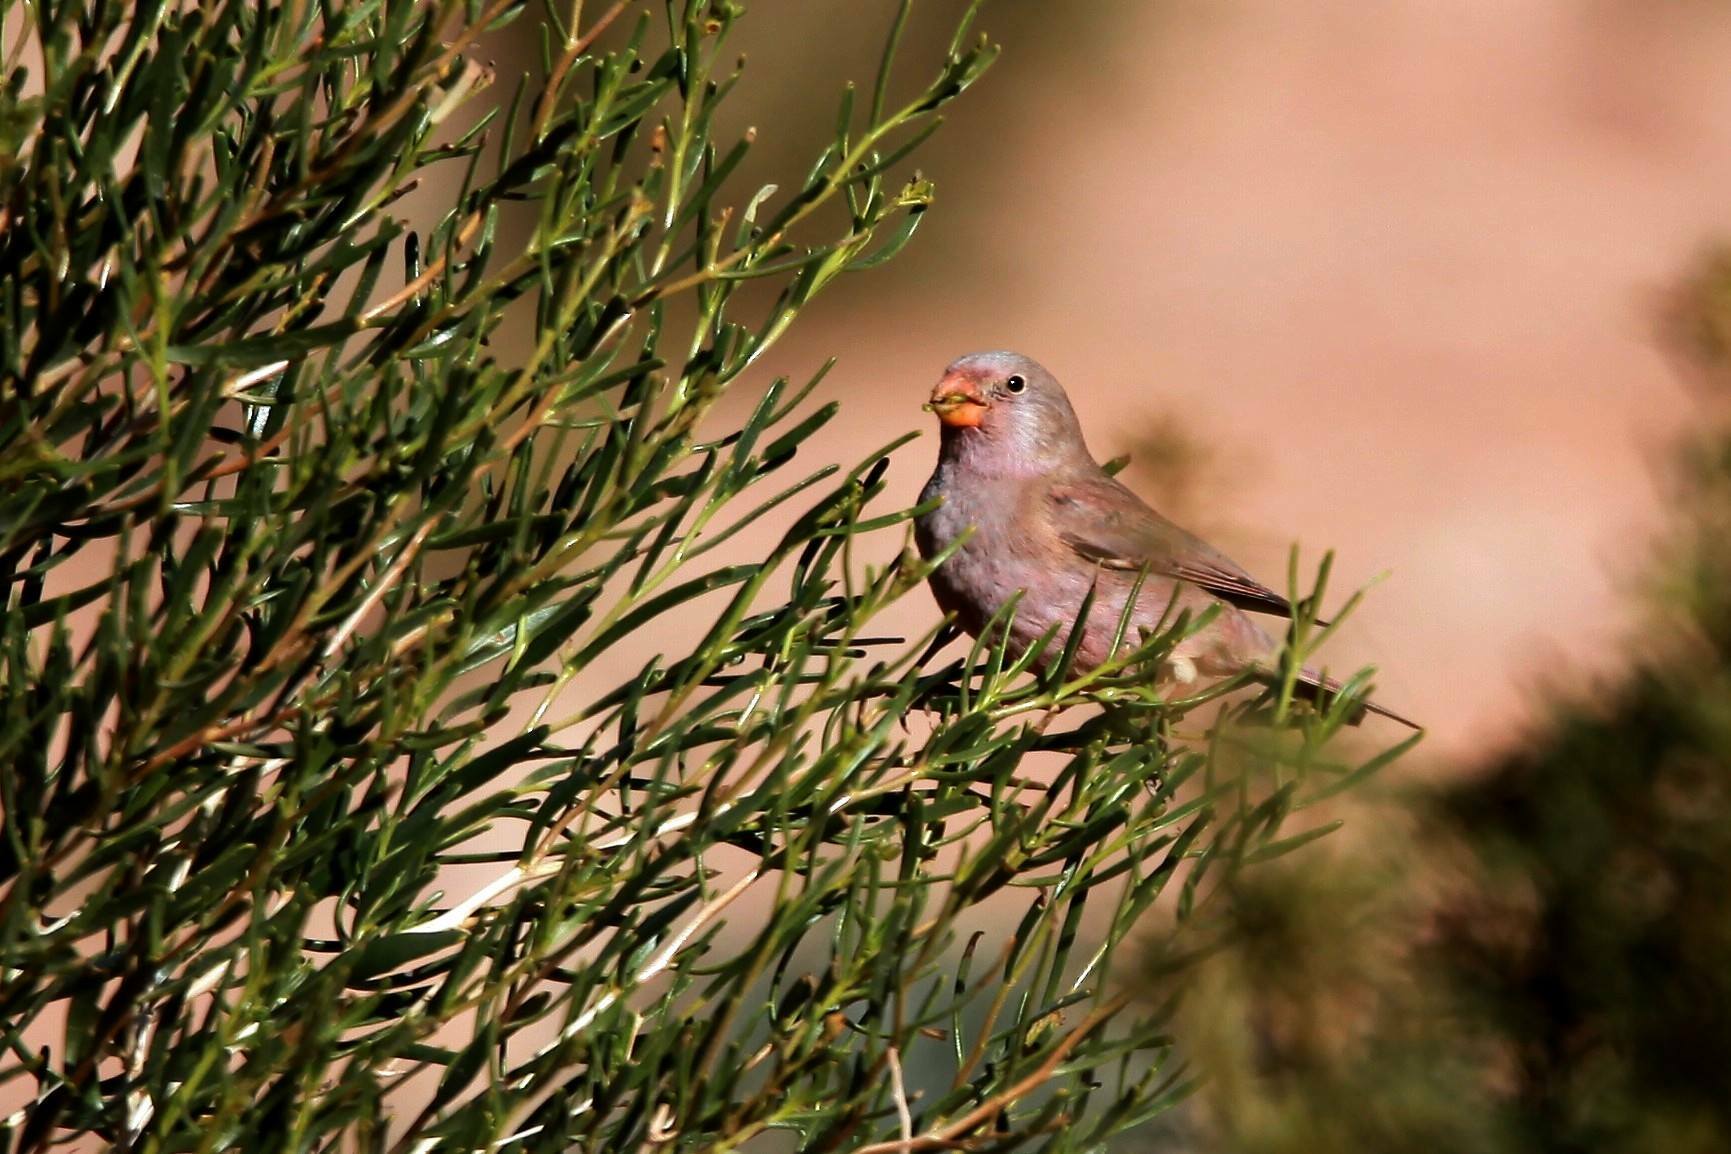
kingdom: Animalia
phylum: Chordata
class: Aves
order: Passeriformes
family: Fringillidae
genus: Bucanetes
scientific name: Bucanetes githagineus
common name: Trumpeter finch
